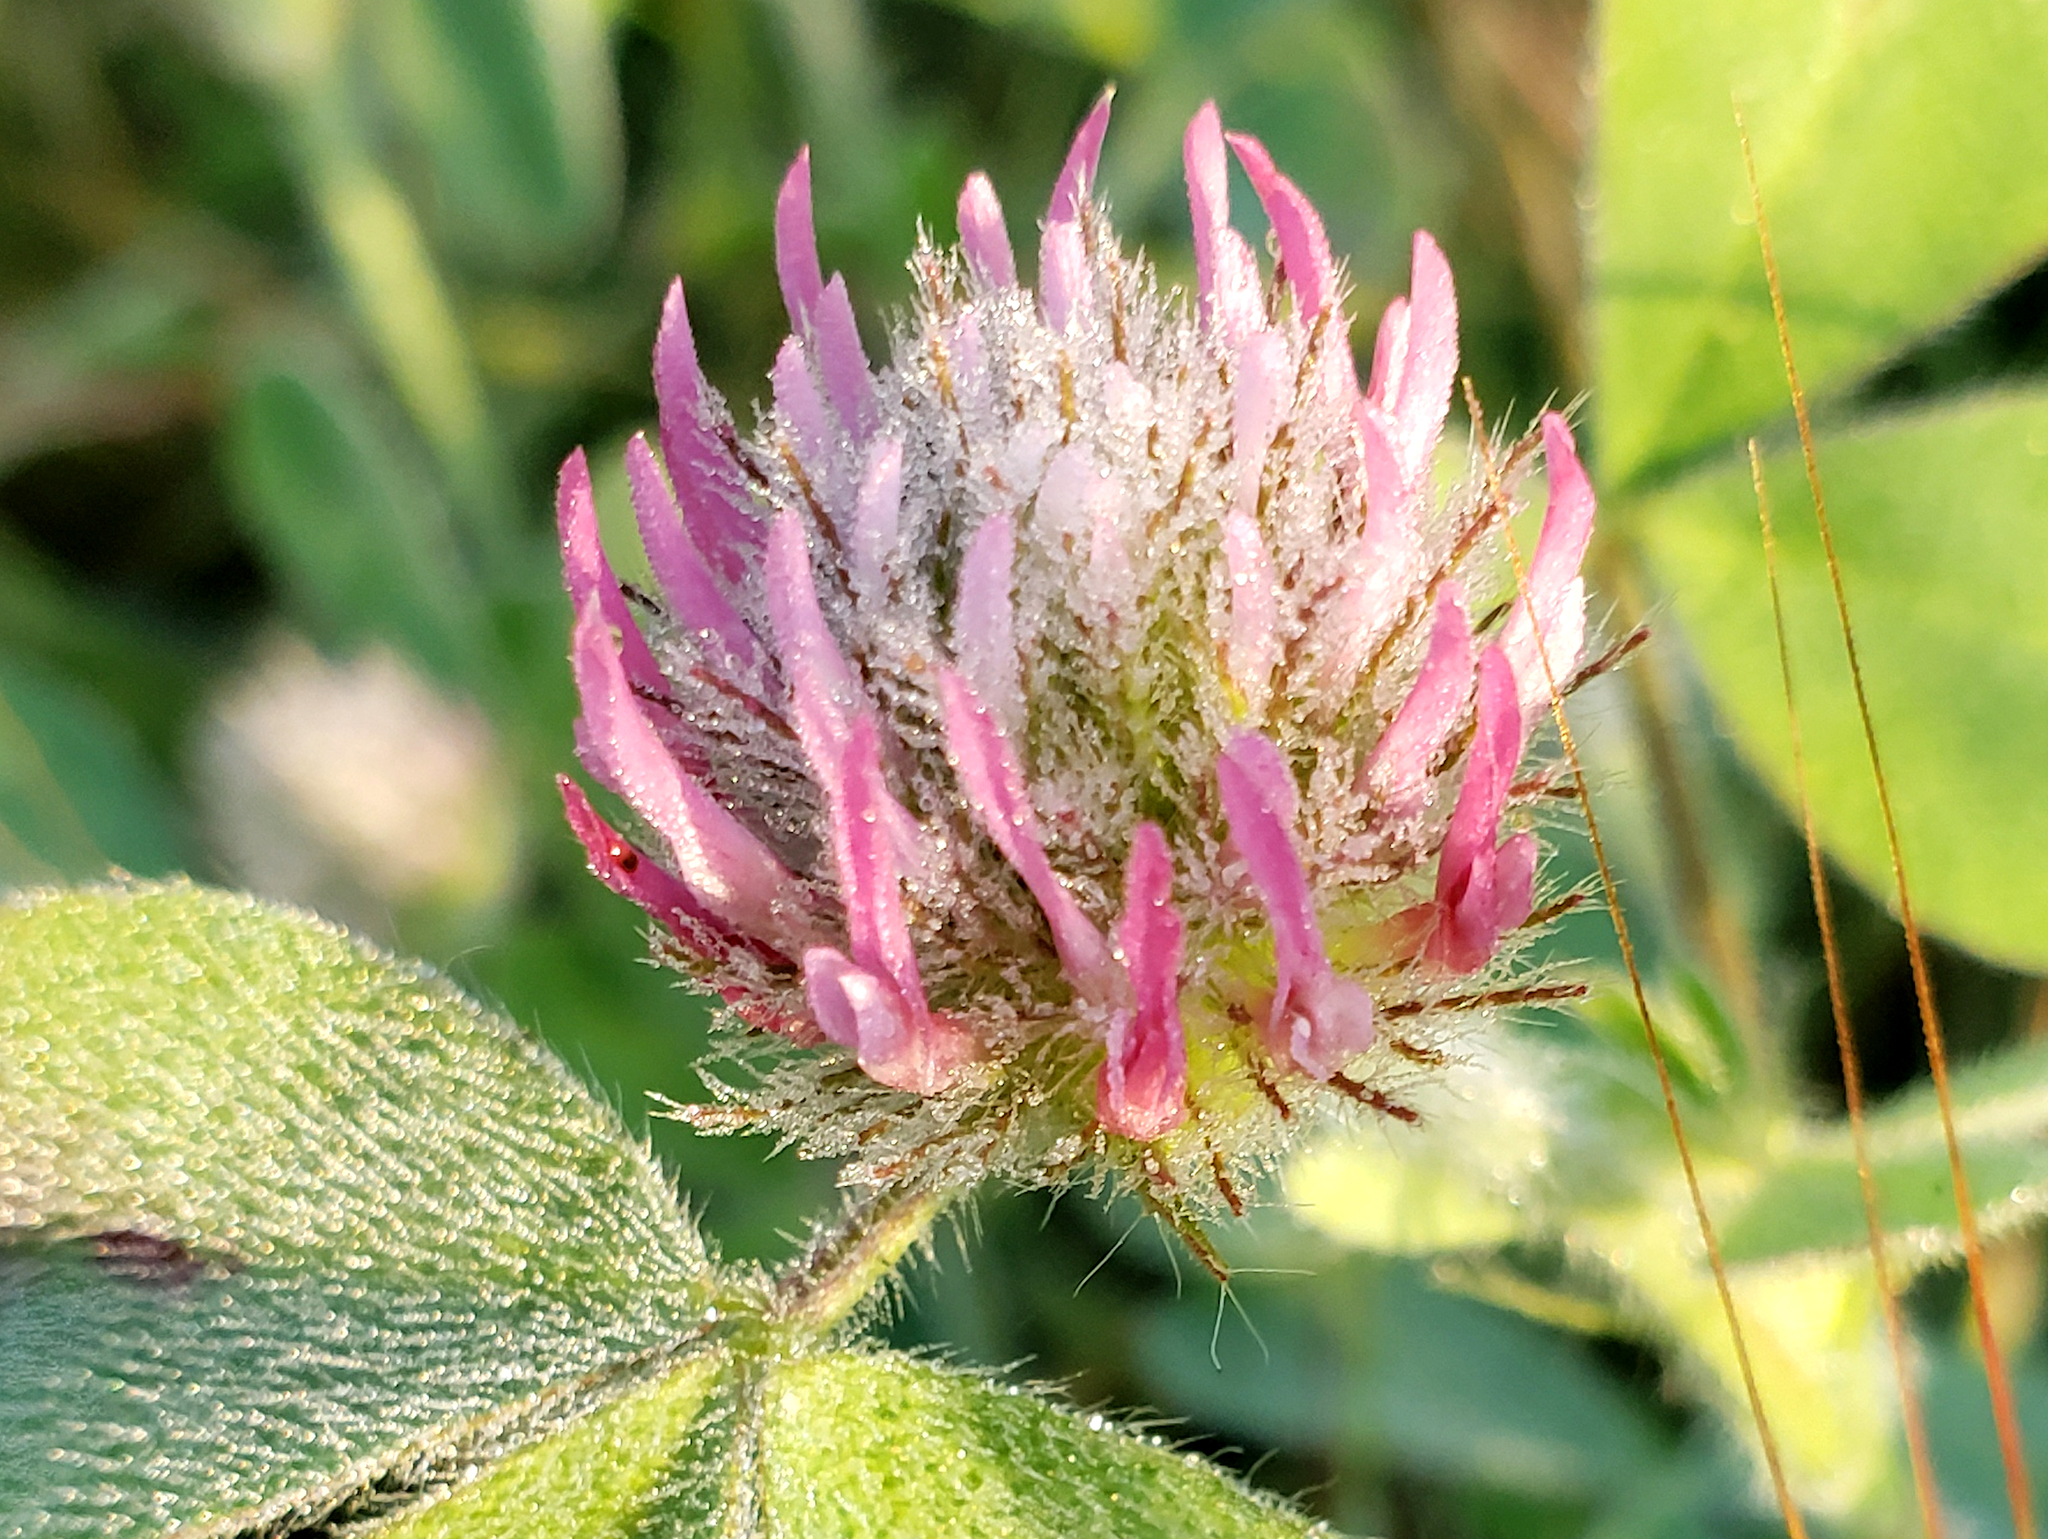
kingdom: Plantae
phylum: Tracheophyta
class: Magnoliopsida
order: Fabales
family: Fabaceae
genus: Trifolium
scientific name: Trifolium hirtum
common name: Rose clover
